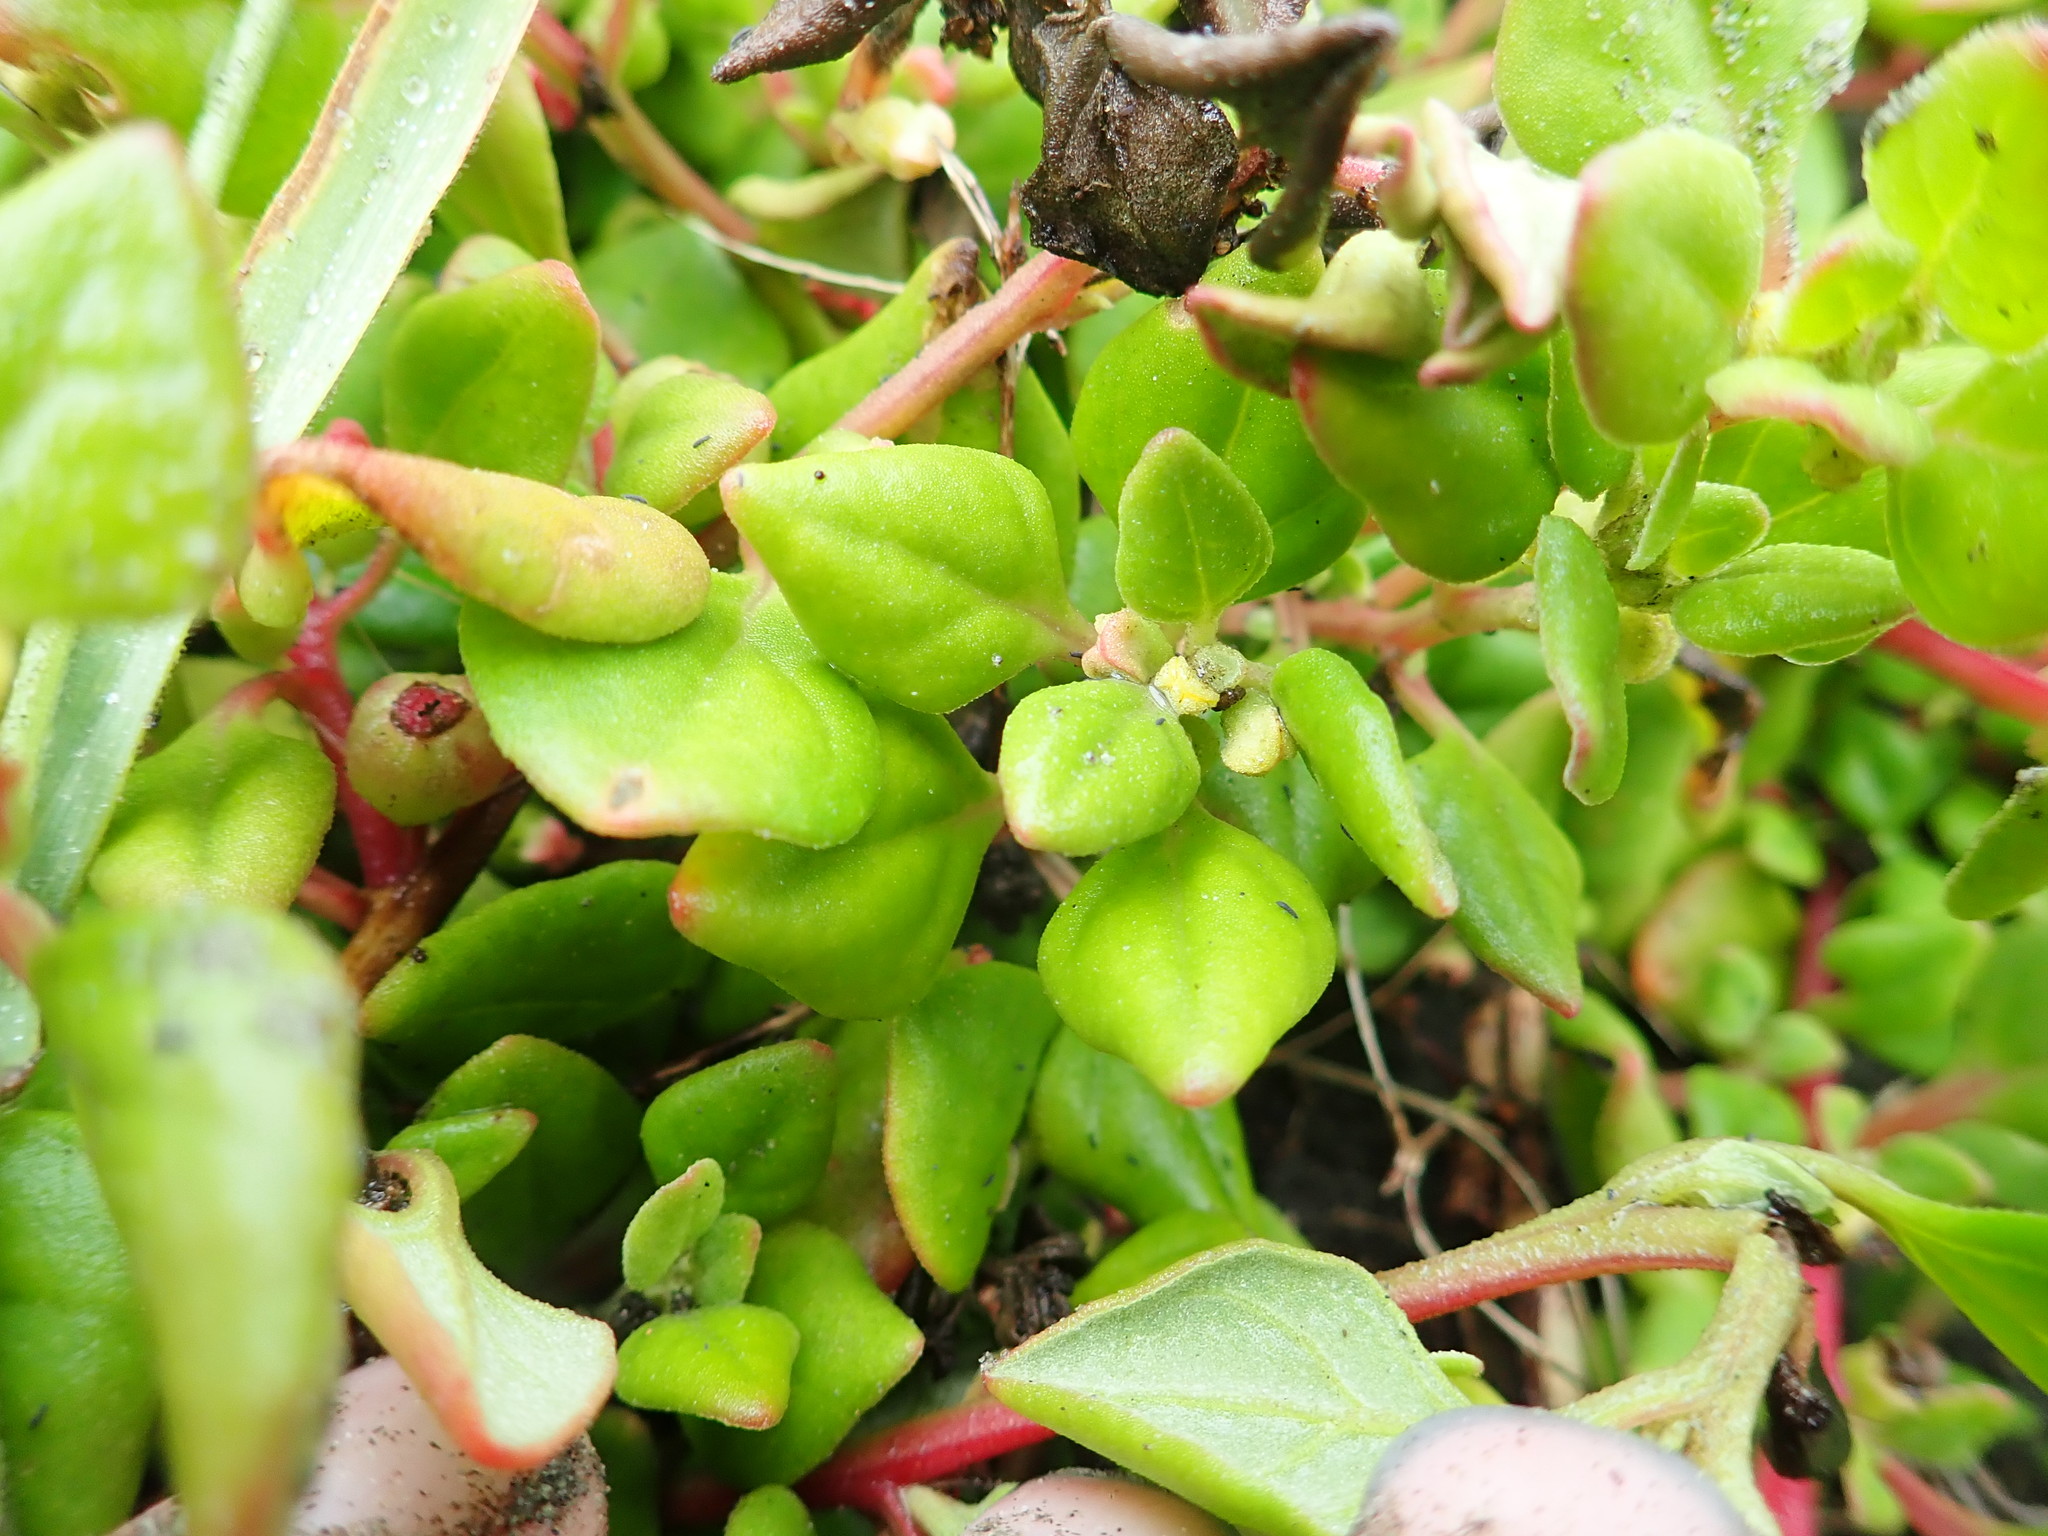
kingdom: Plantae
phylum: Tracheophyta
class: Magnoliopsida
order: Caryophyllales
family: Aizoaceae
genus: Tetragonia
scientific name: Tetragonia implexicoma
